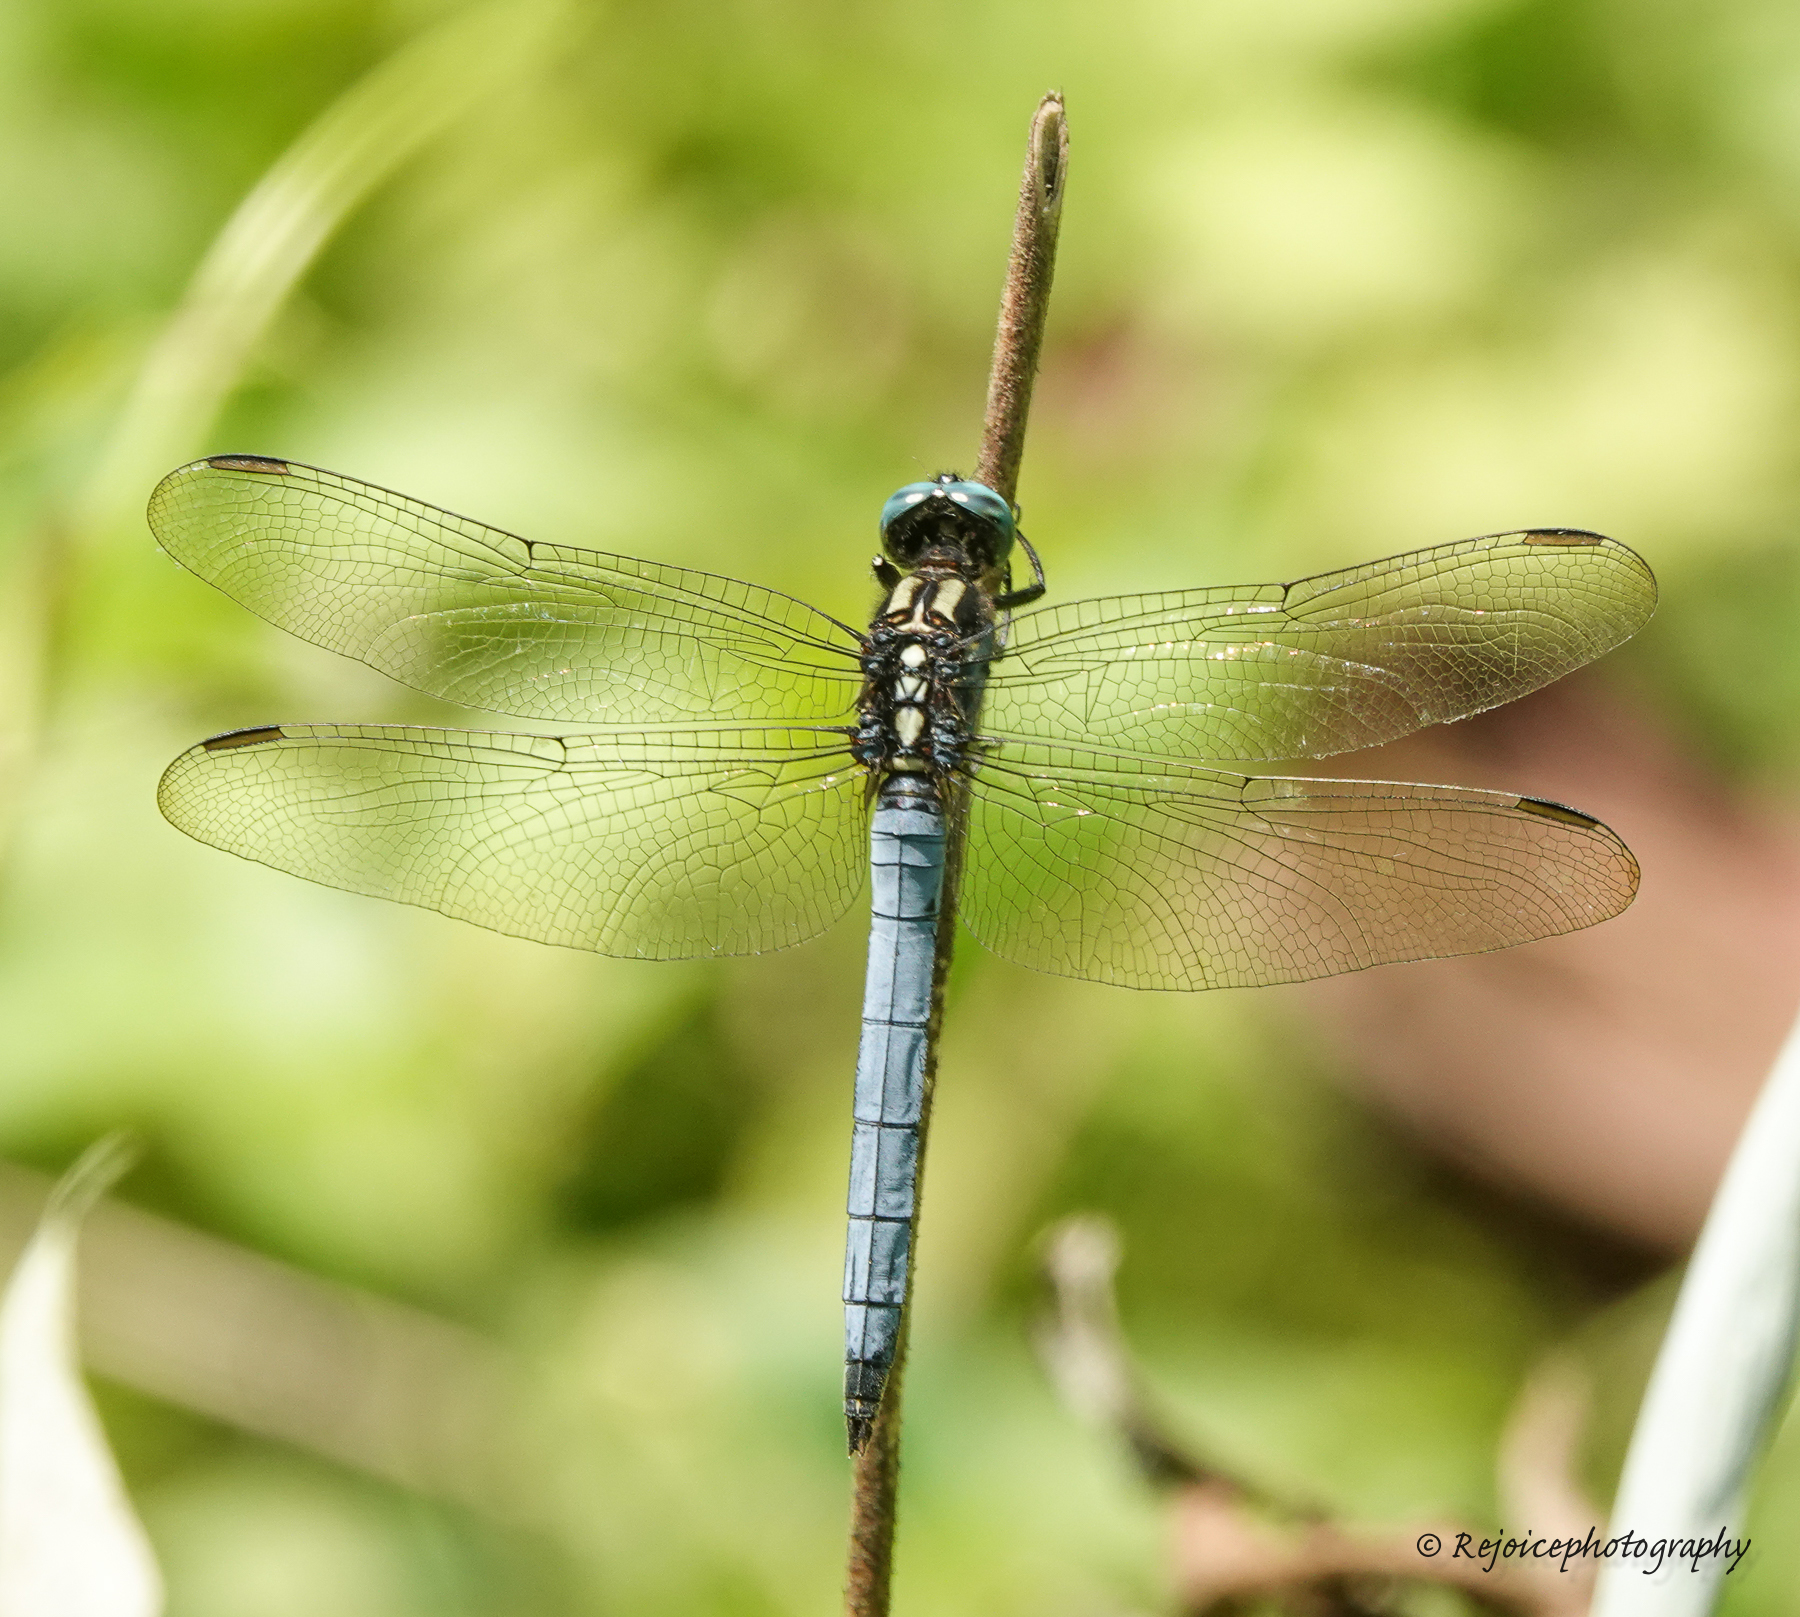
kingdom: Animalia
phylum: Arthropoda
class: Insecta
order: Odonata
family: Libellulidae
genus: Orthetrum
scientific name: Orthetrum luzonicum
